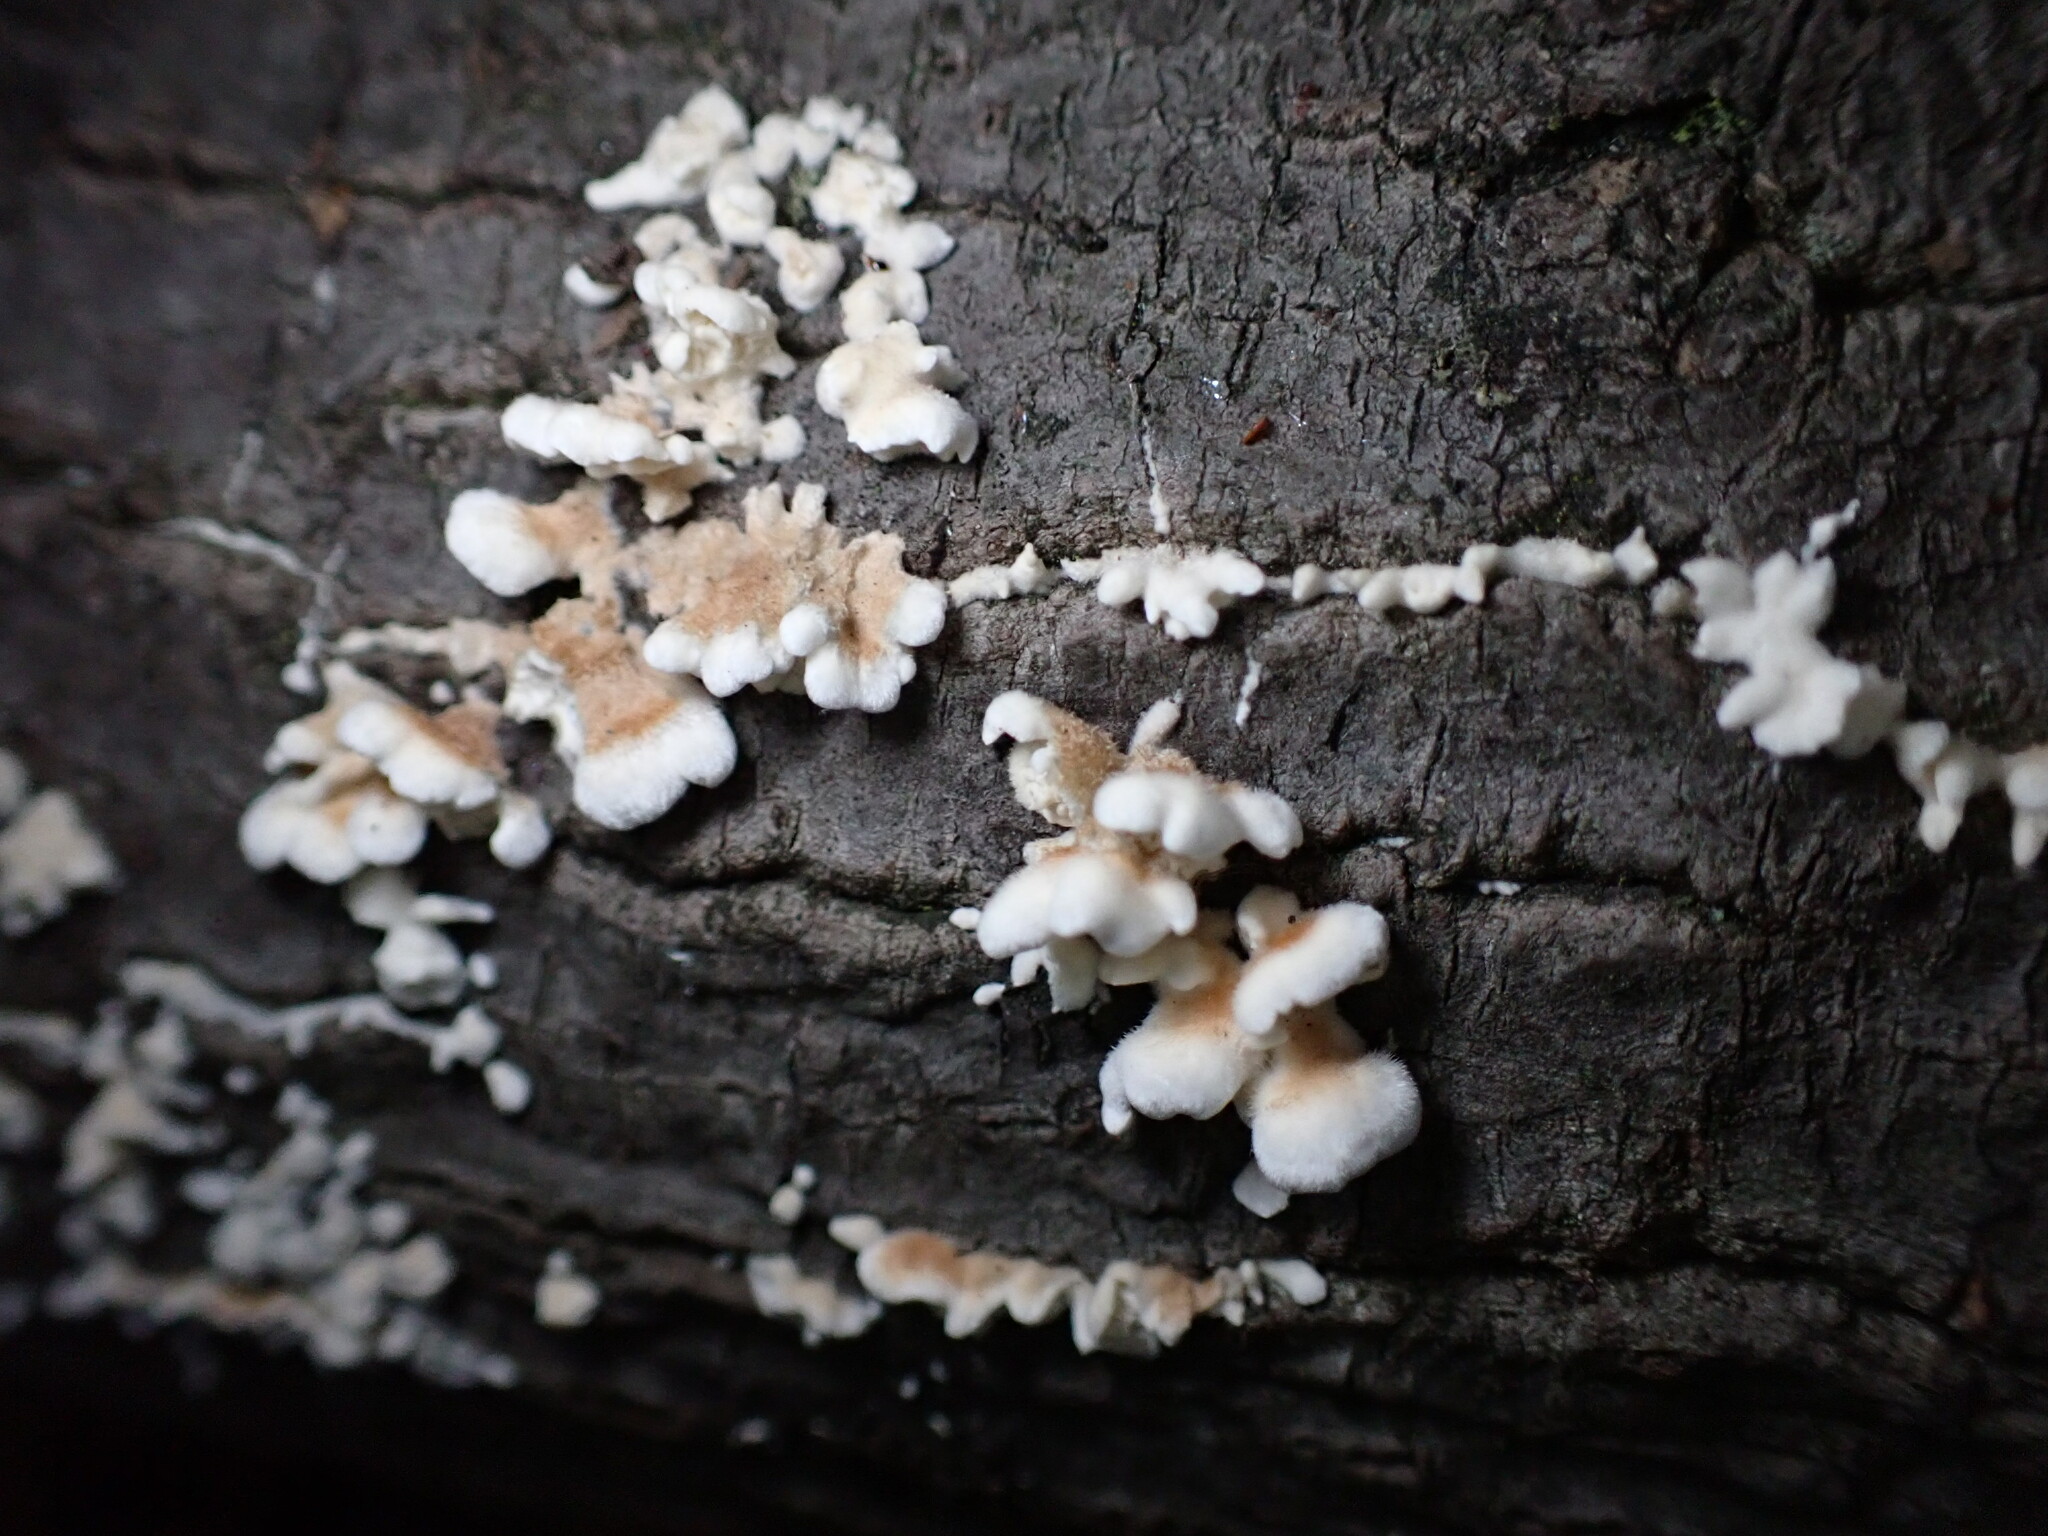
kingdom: Fungi
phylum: Basidiomycota
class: Agaricomycetes
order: Amylocorticiales
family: Amylocorticiaceae
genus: Plicaturopsis
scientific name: Plicaturopsis crispa
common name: Crimped gill
